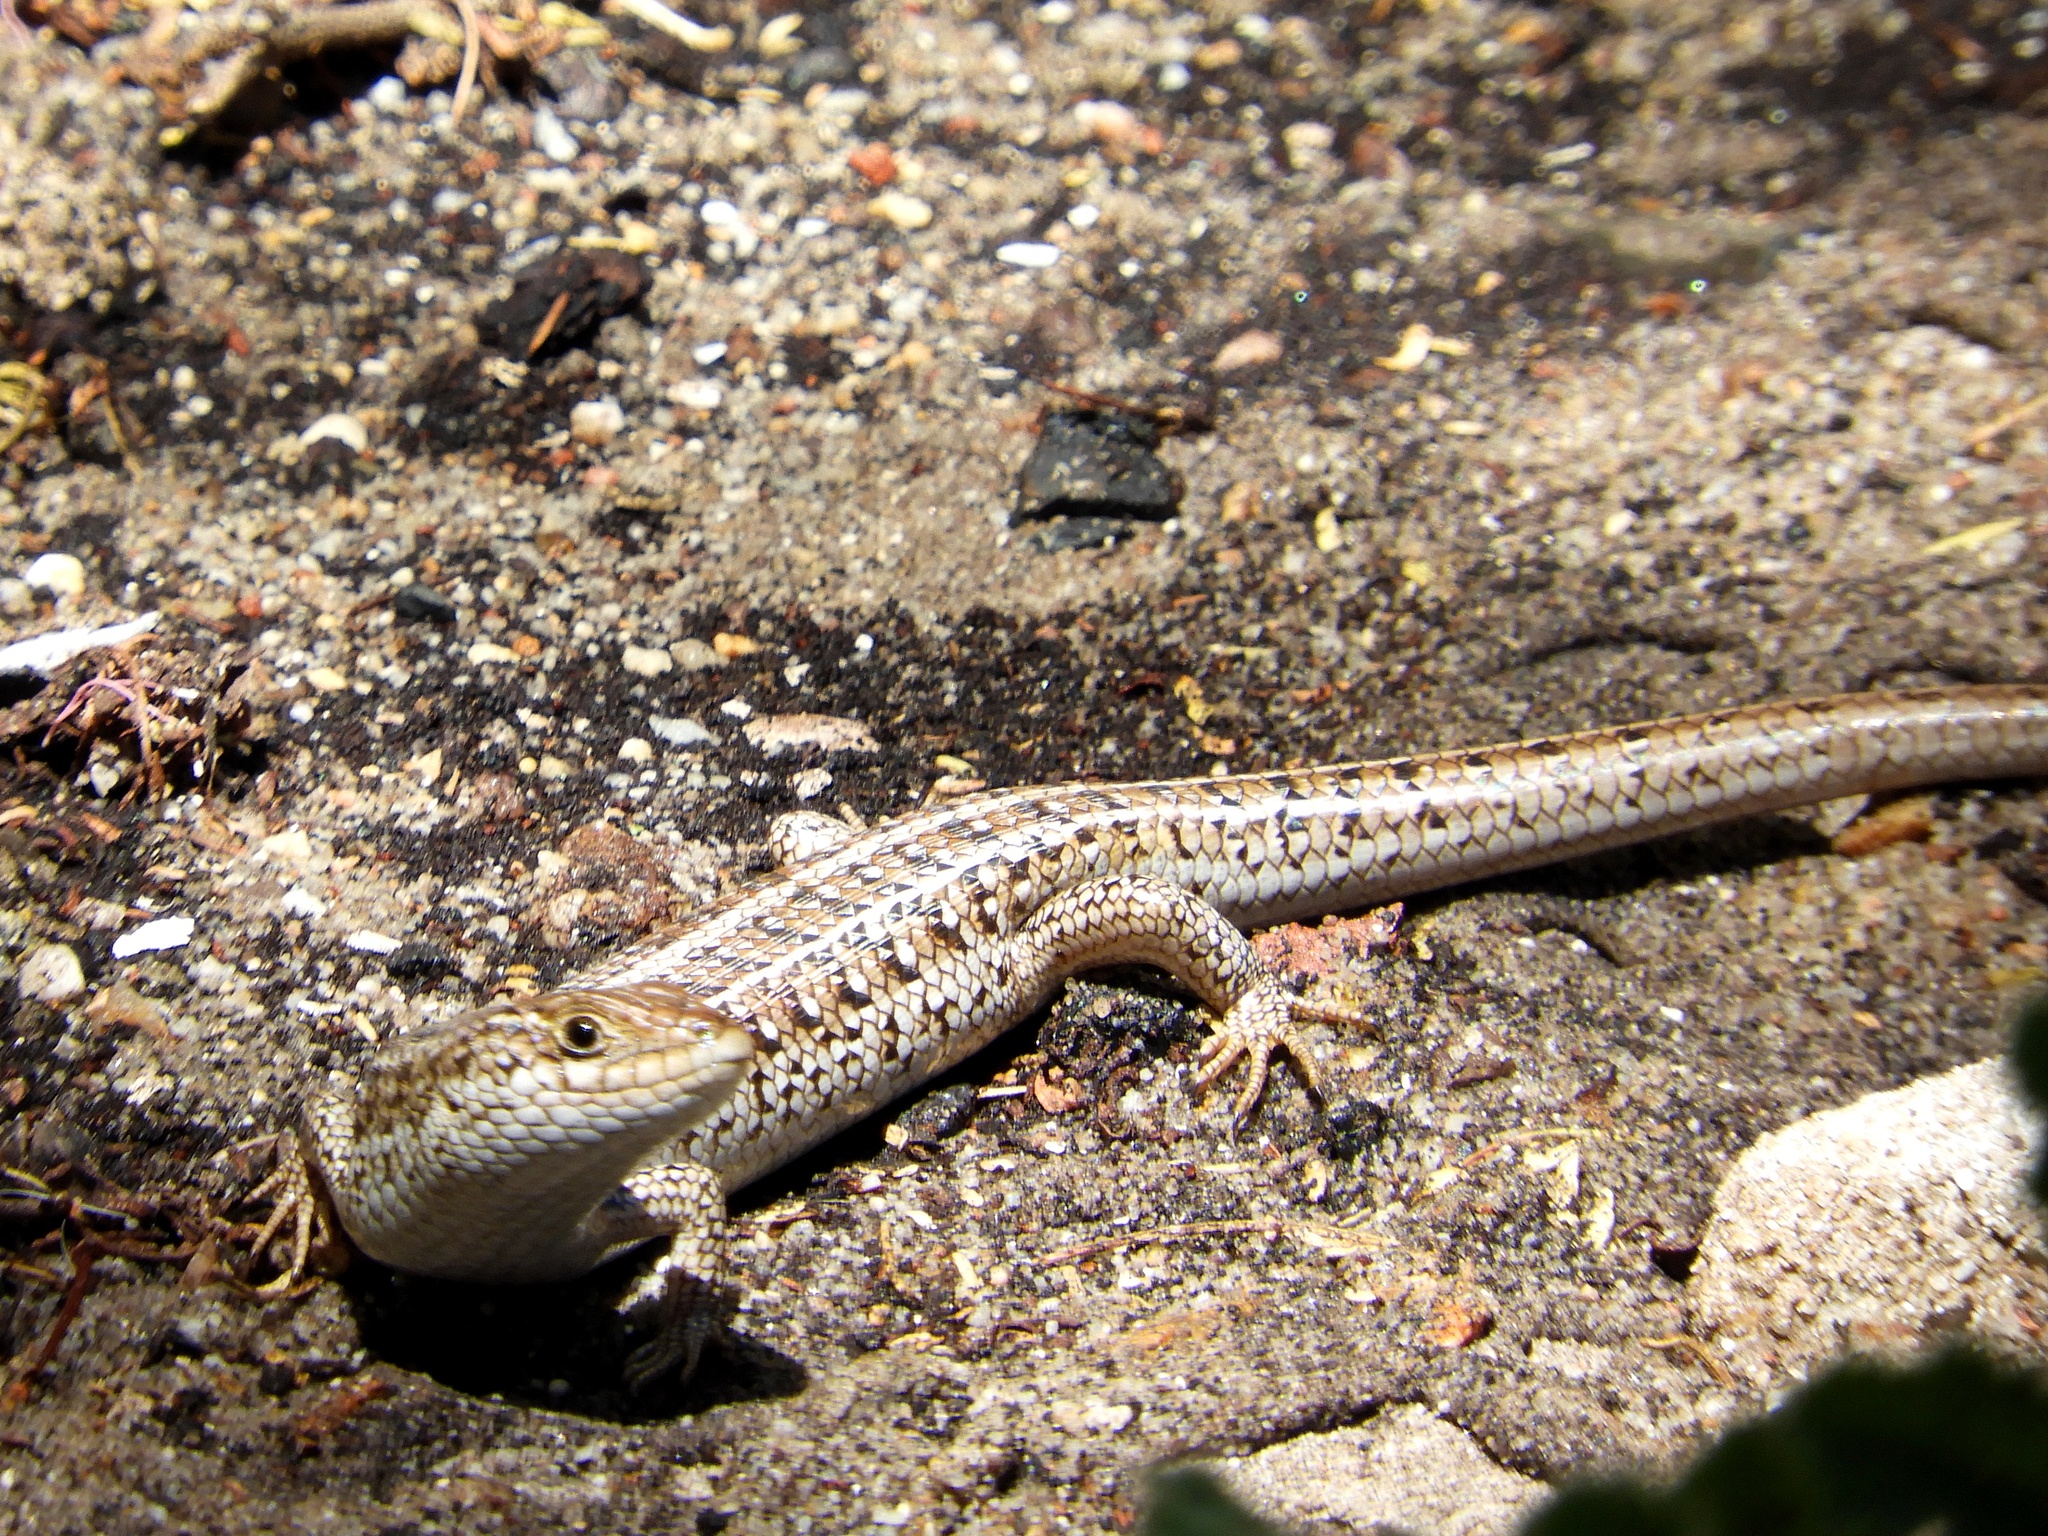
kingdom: Animalia
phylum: Chordata
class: Squamata
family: Scincidae
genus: Trachylepis
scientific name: Trachylepis capensis
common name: Cape skink
